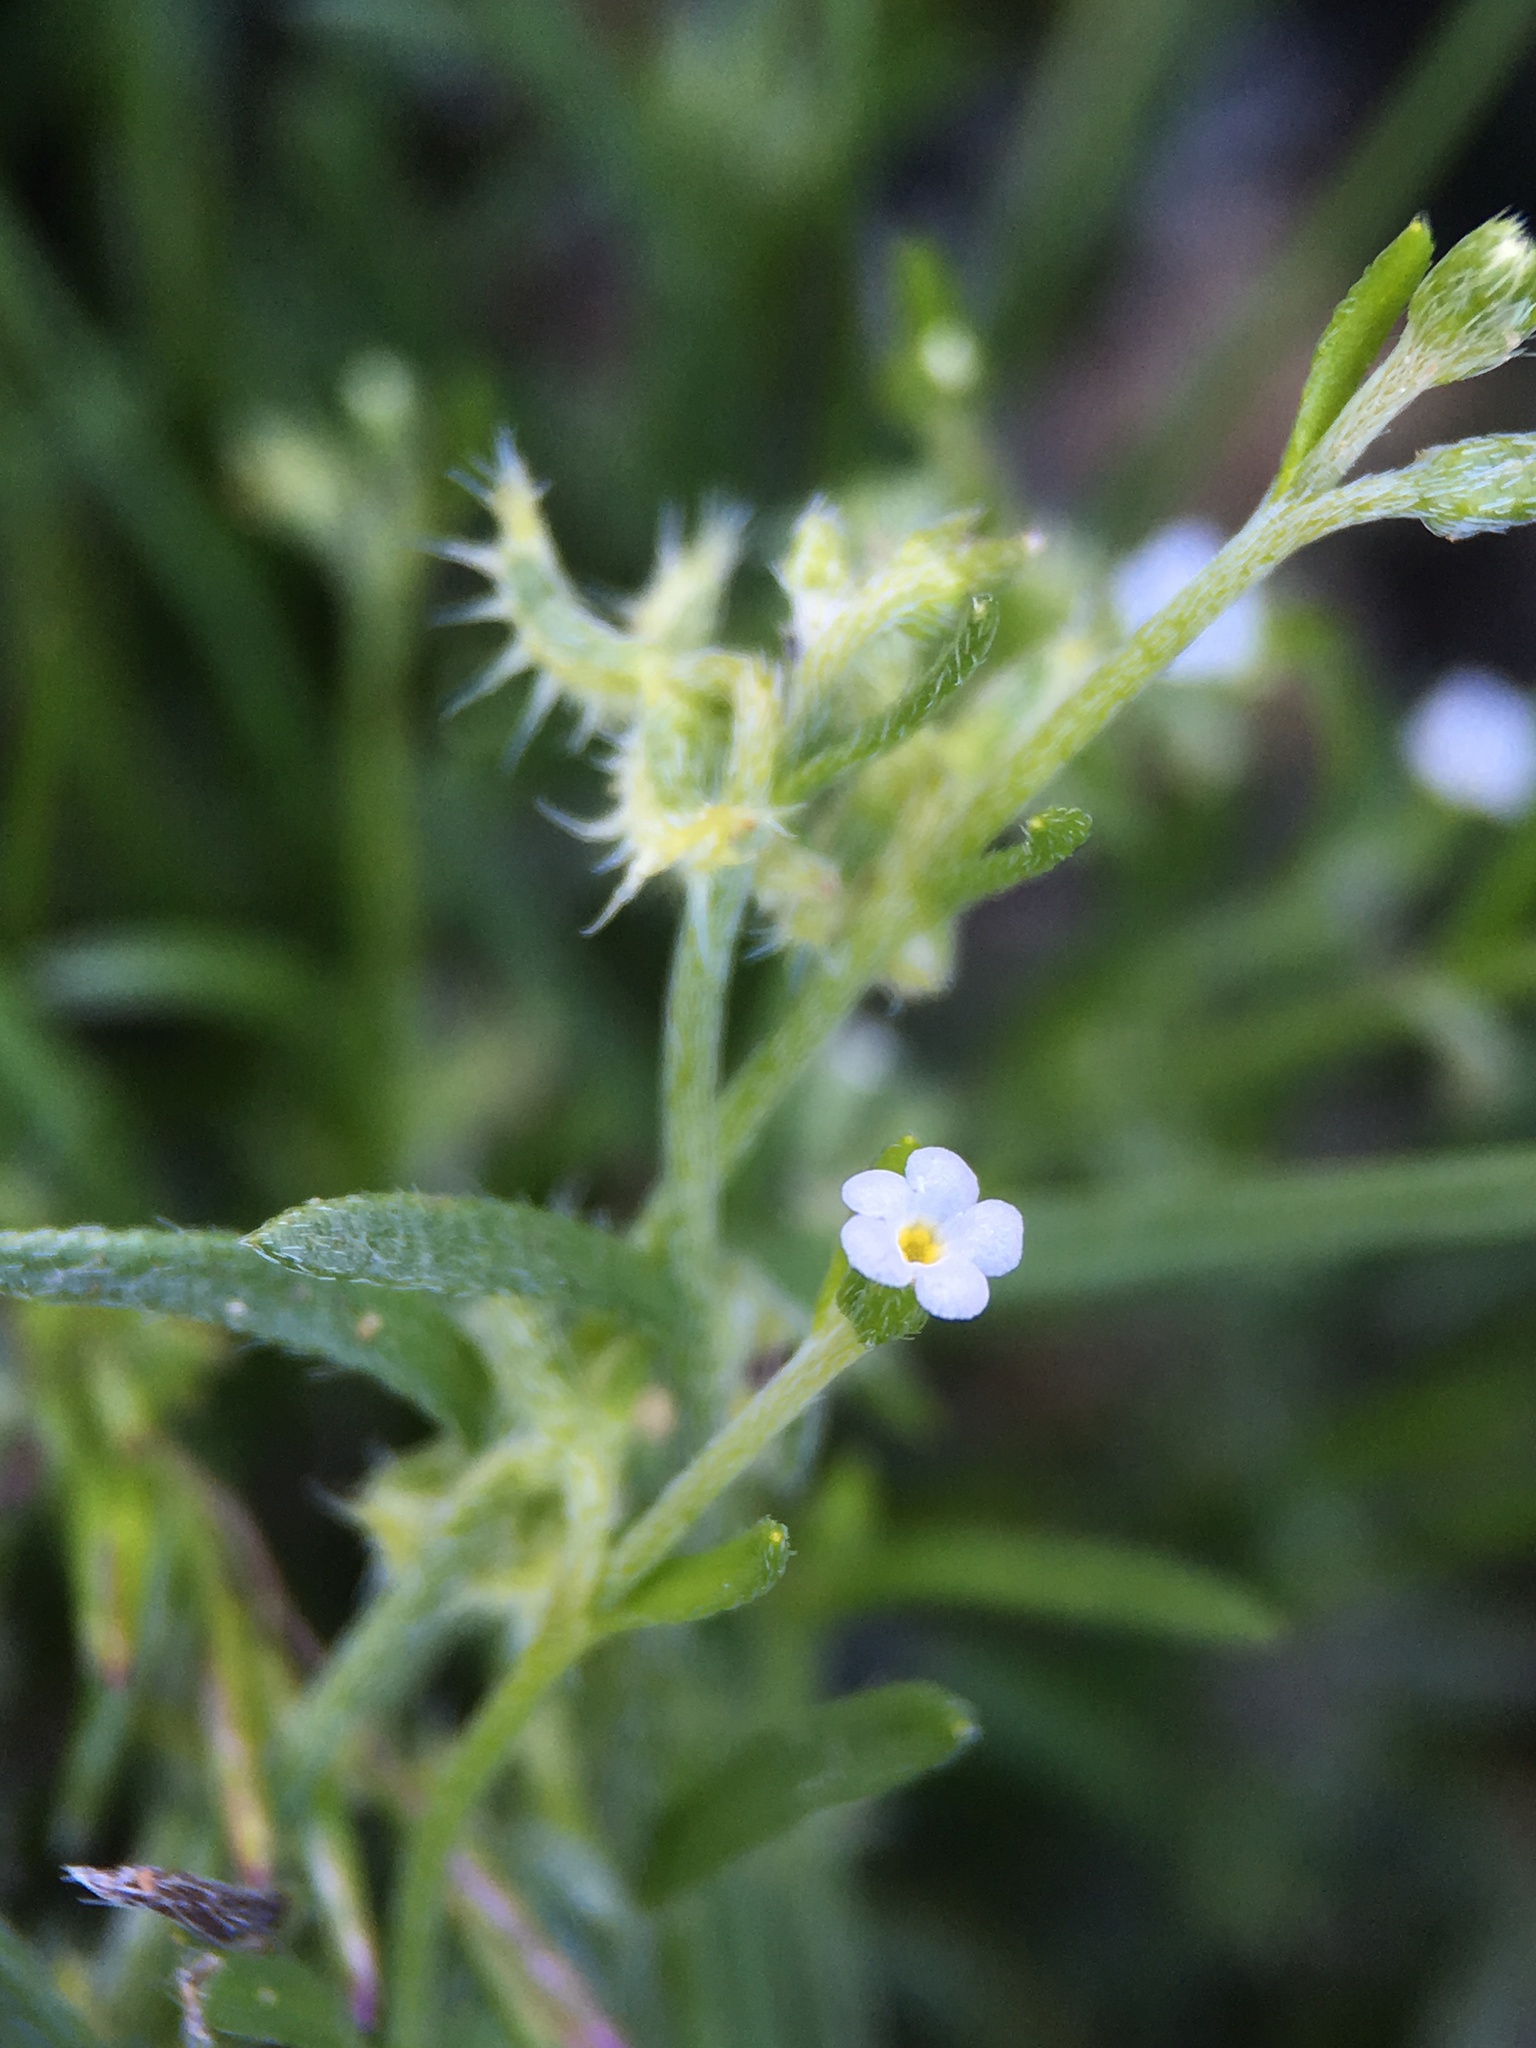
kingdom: Plantae
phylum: Tracheophyta
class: Magnoliopsida
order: Boraginales
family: Boraginaceae
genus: Pectocarya
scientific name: Pectocarya recurvata
